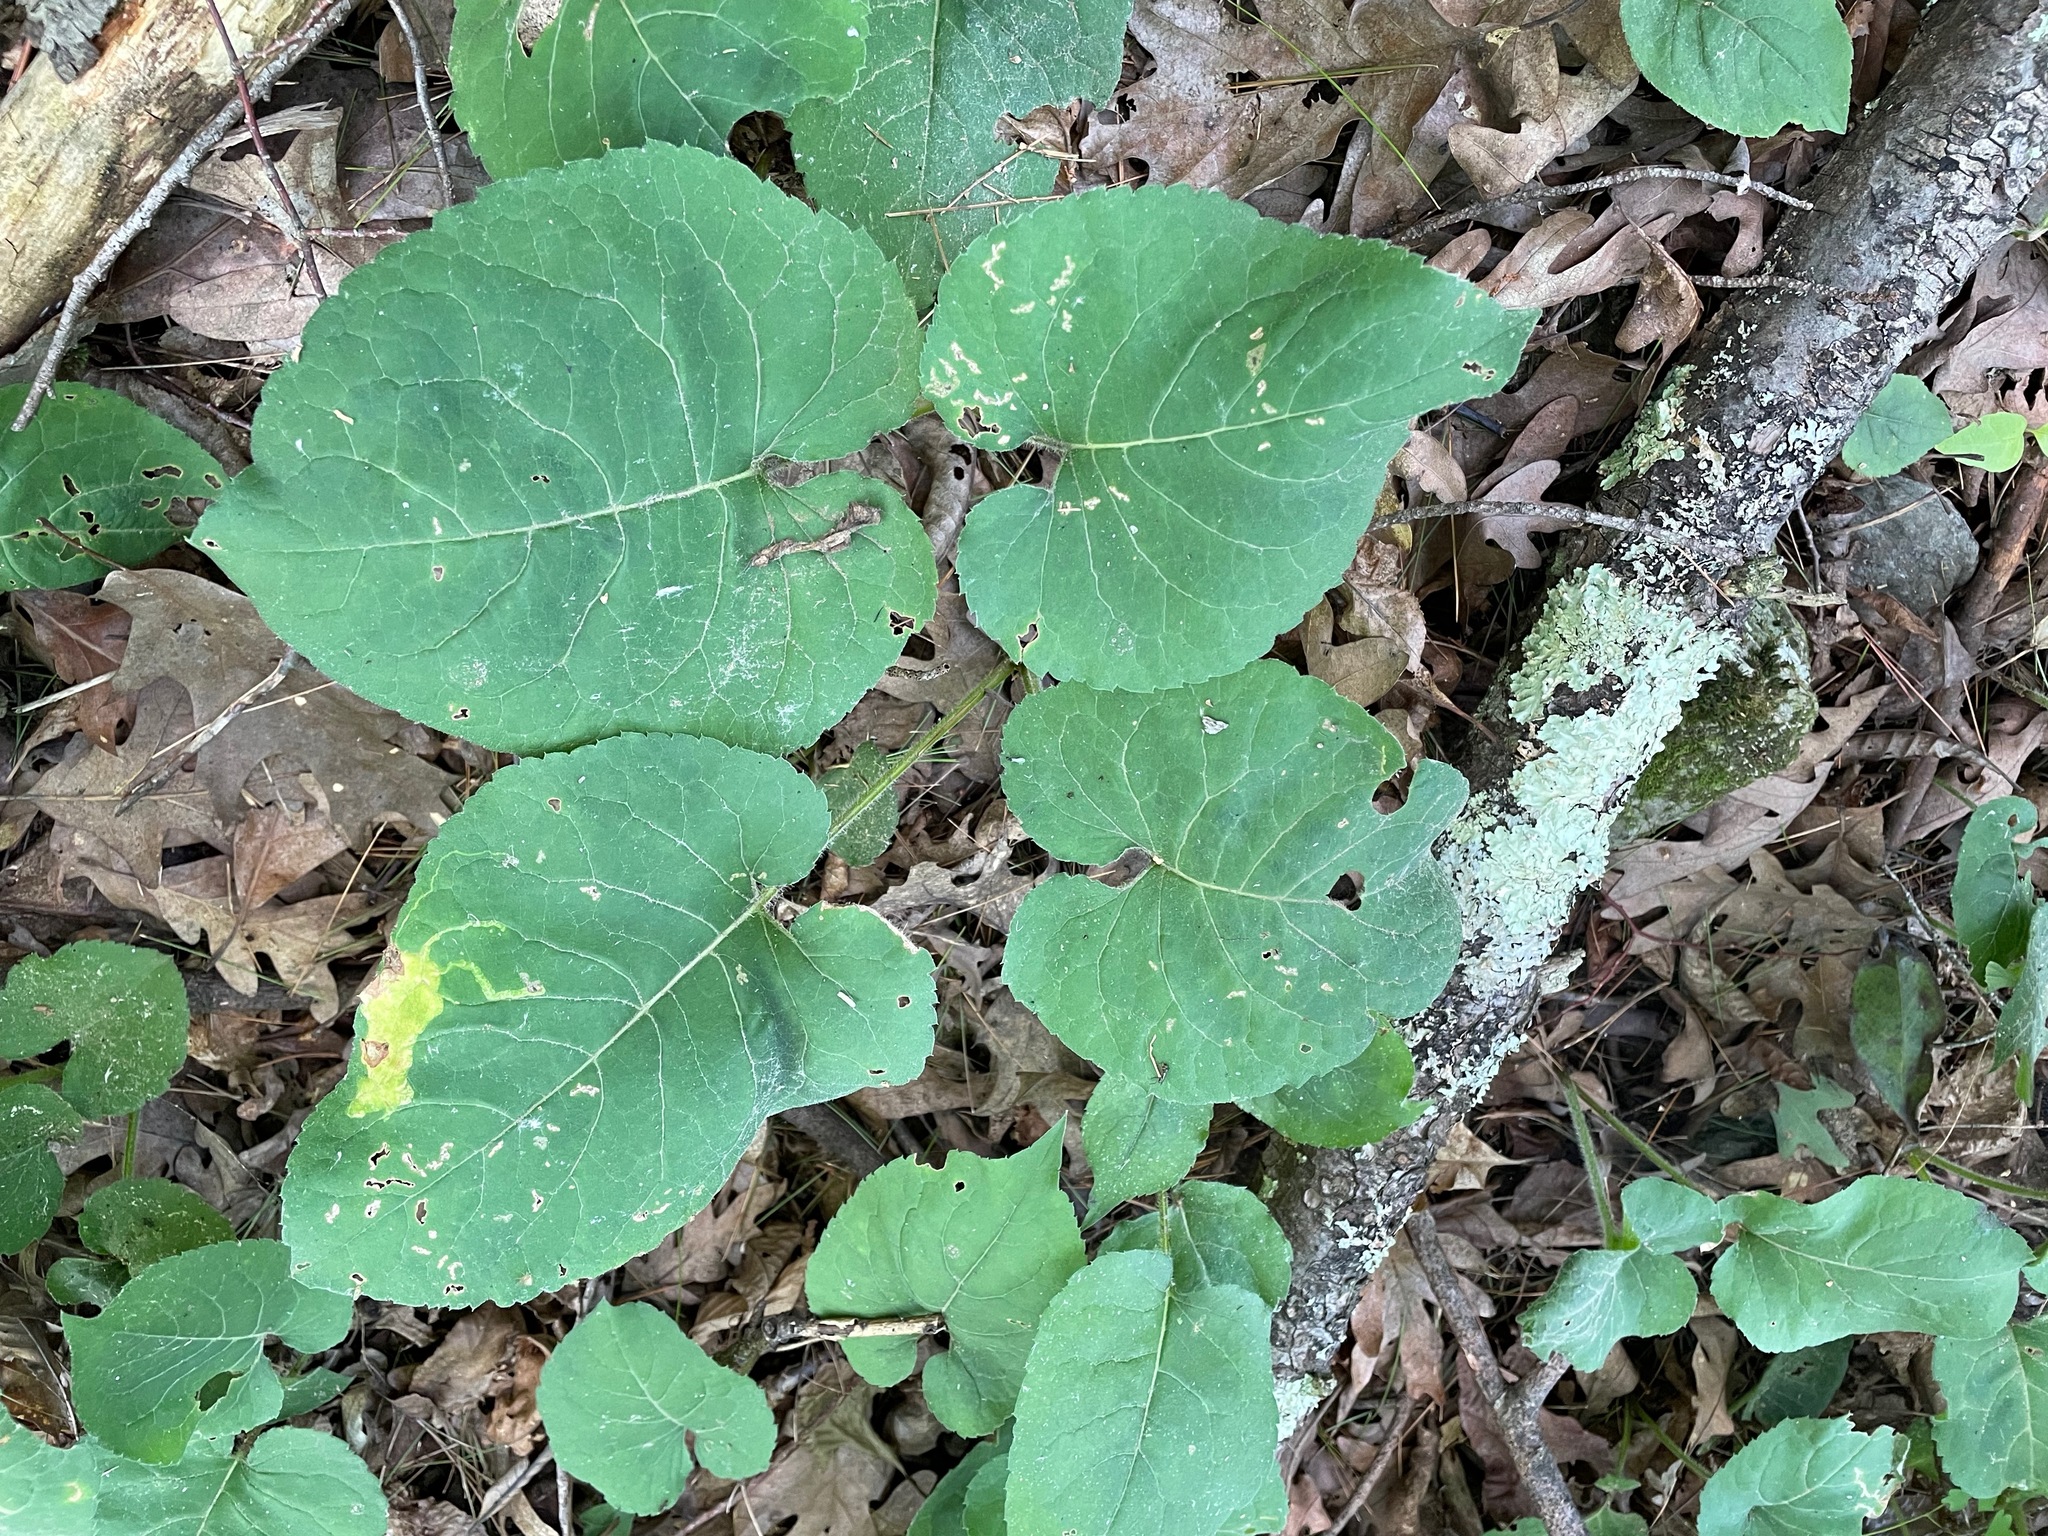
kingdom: Plantae
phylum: Tracheophyta
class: Magnoliopsida
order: Asterales
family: Asteraceae
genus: Eurybia
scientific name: Eurybia macrophylla
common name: Big-leaved aster
